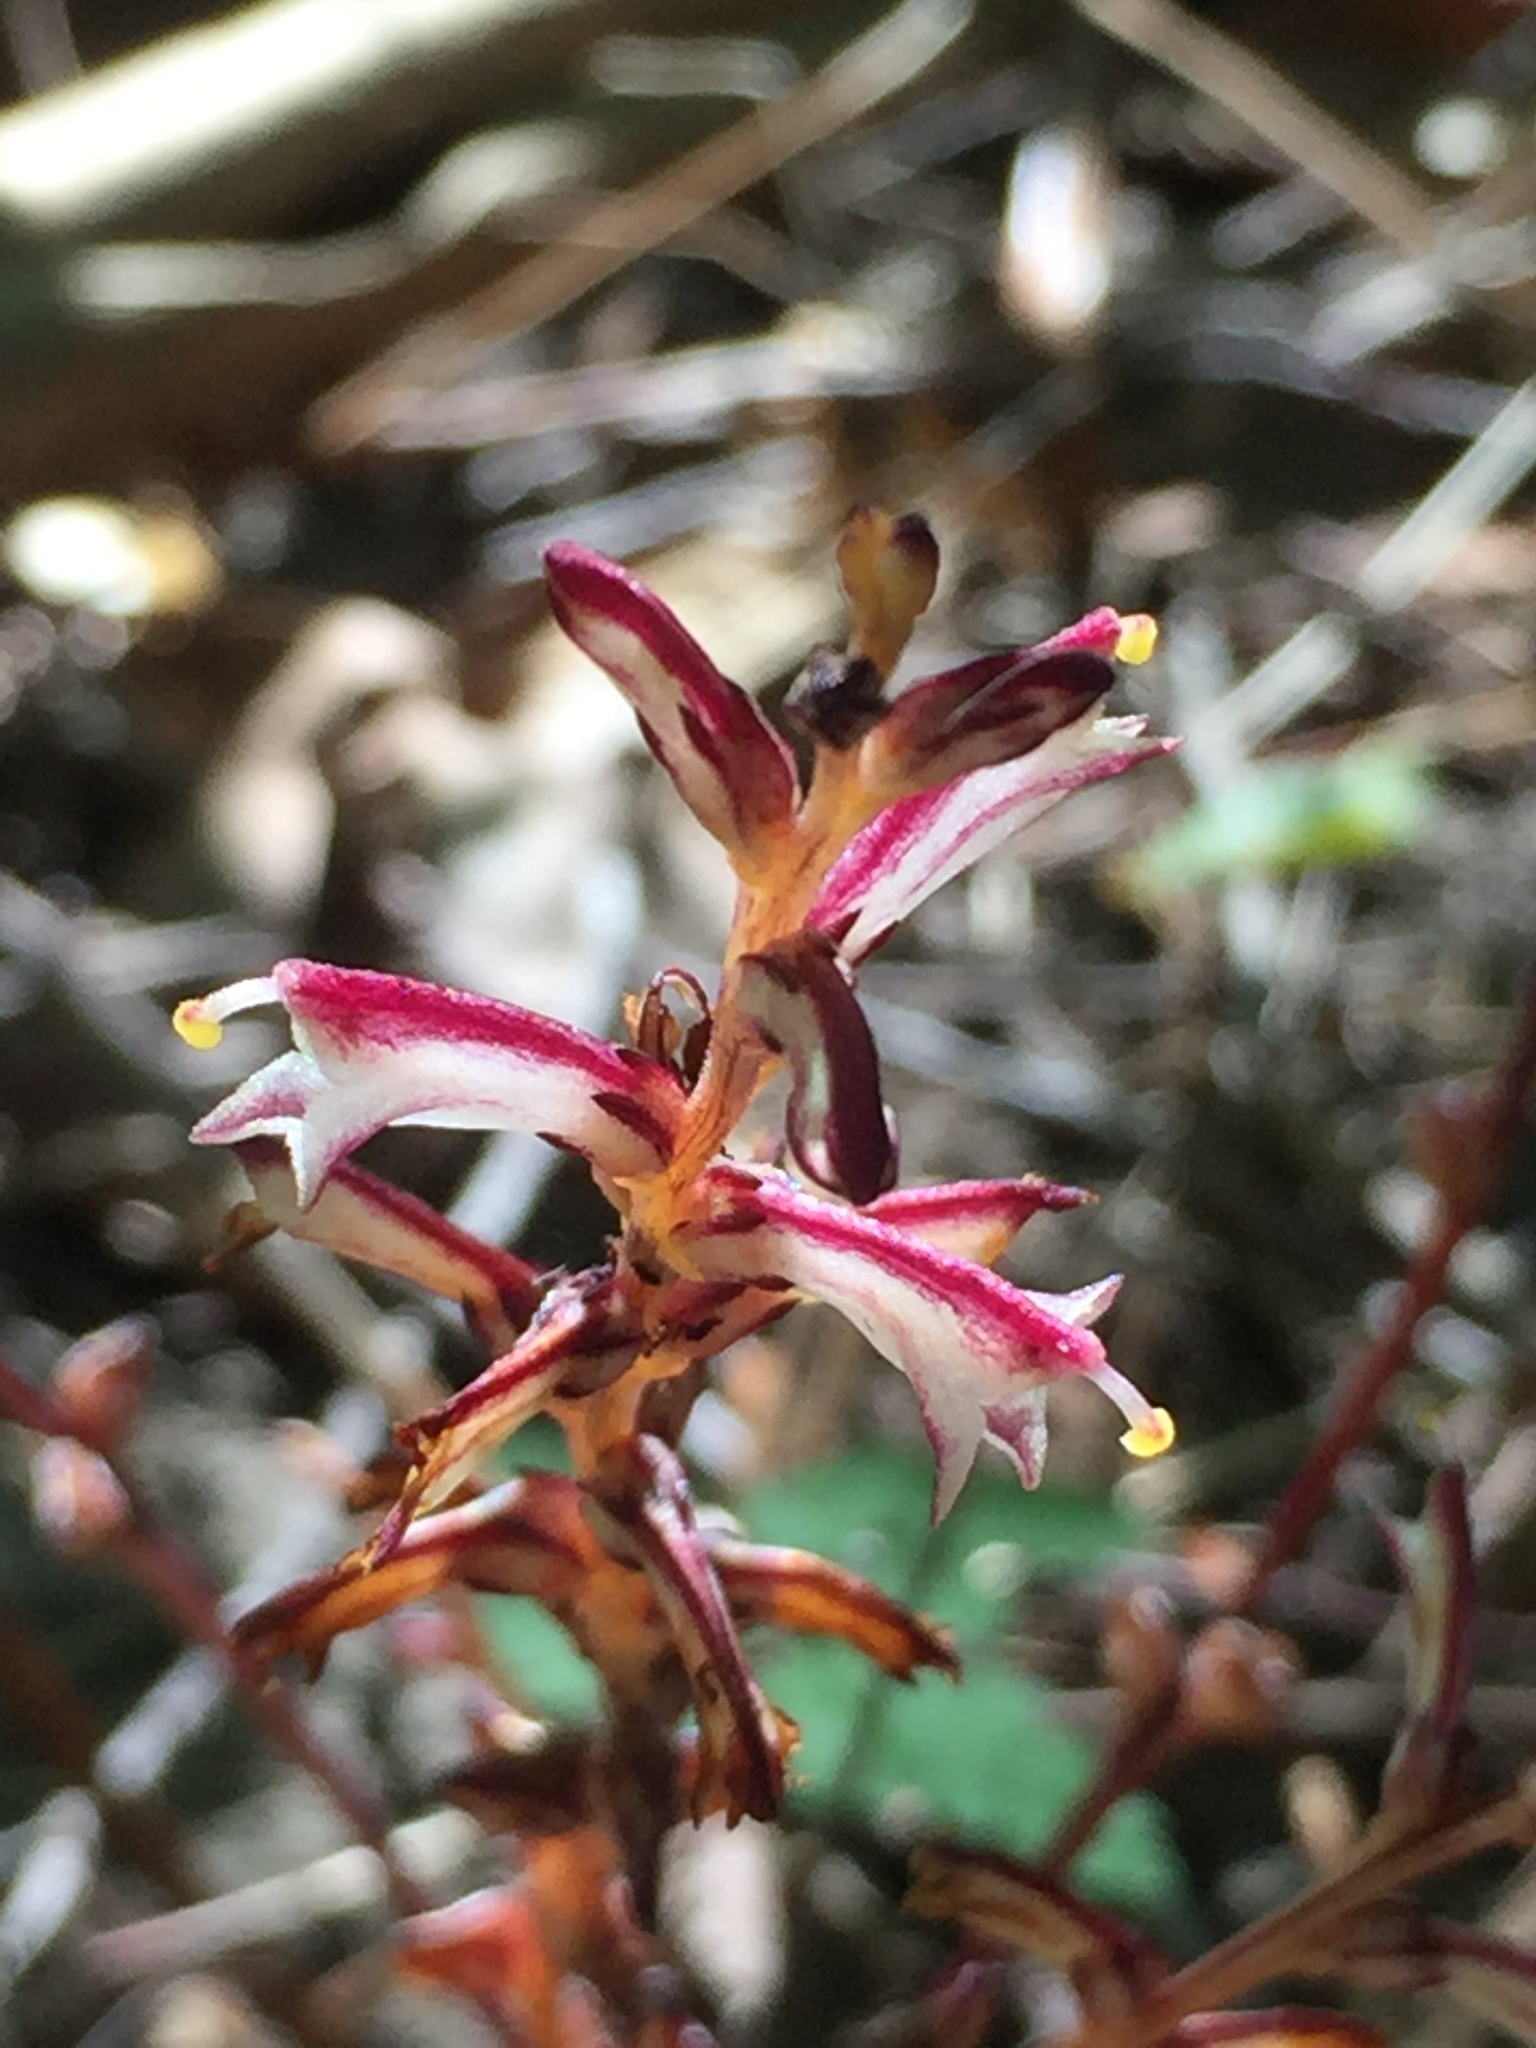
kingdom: Plantae
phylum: Tracheophyta
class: Magnoliopsida
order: Lamiales
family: Orobanchaceae
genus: Epifagus
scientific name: Epifagus virginiana
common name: Beechdrops
